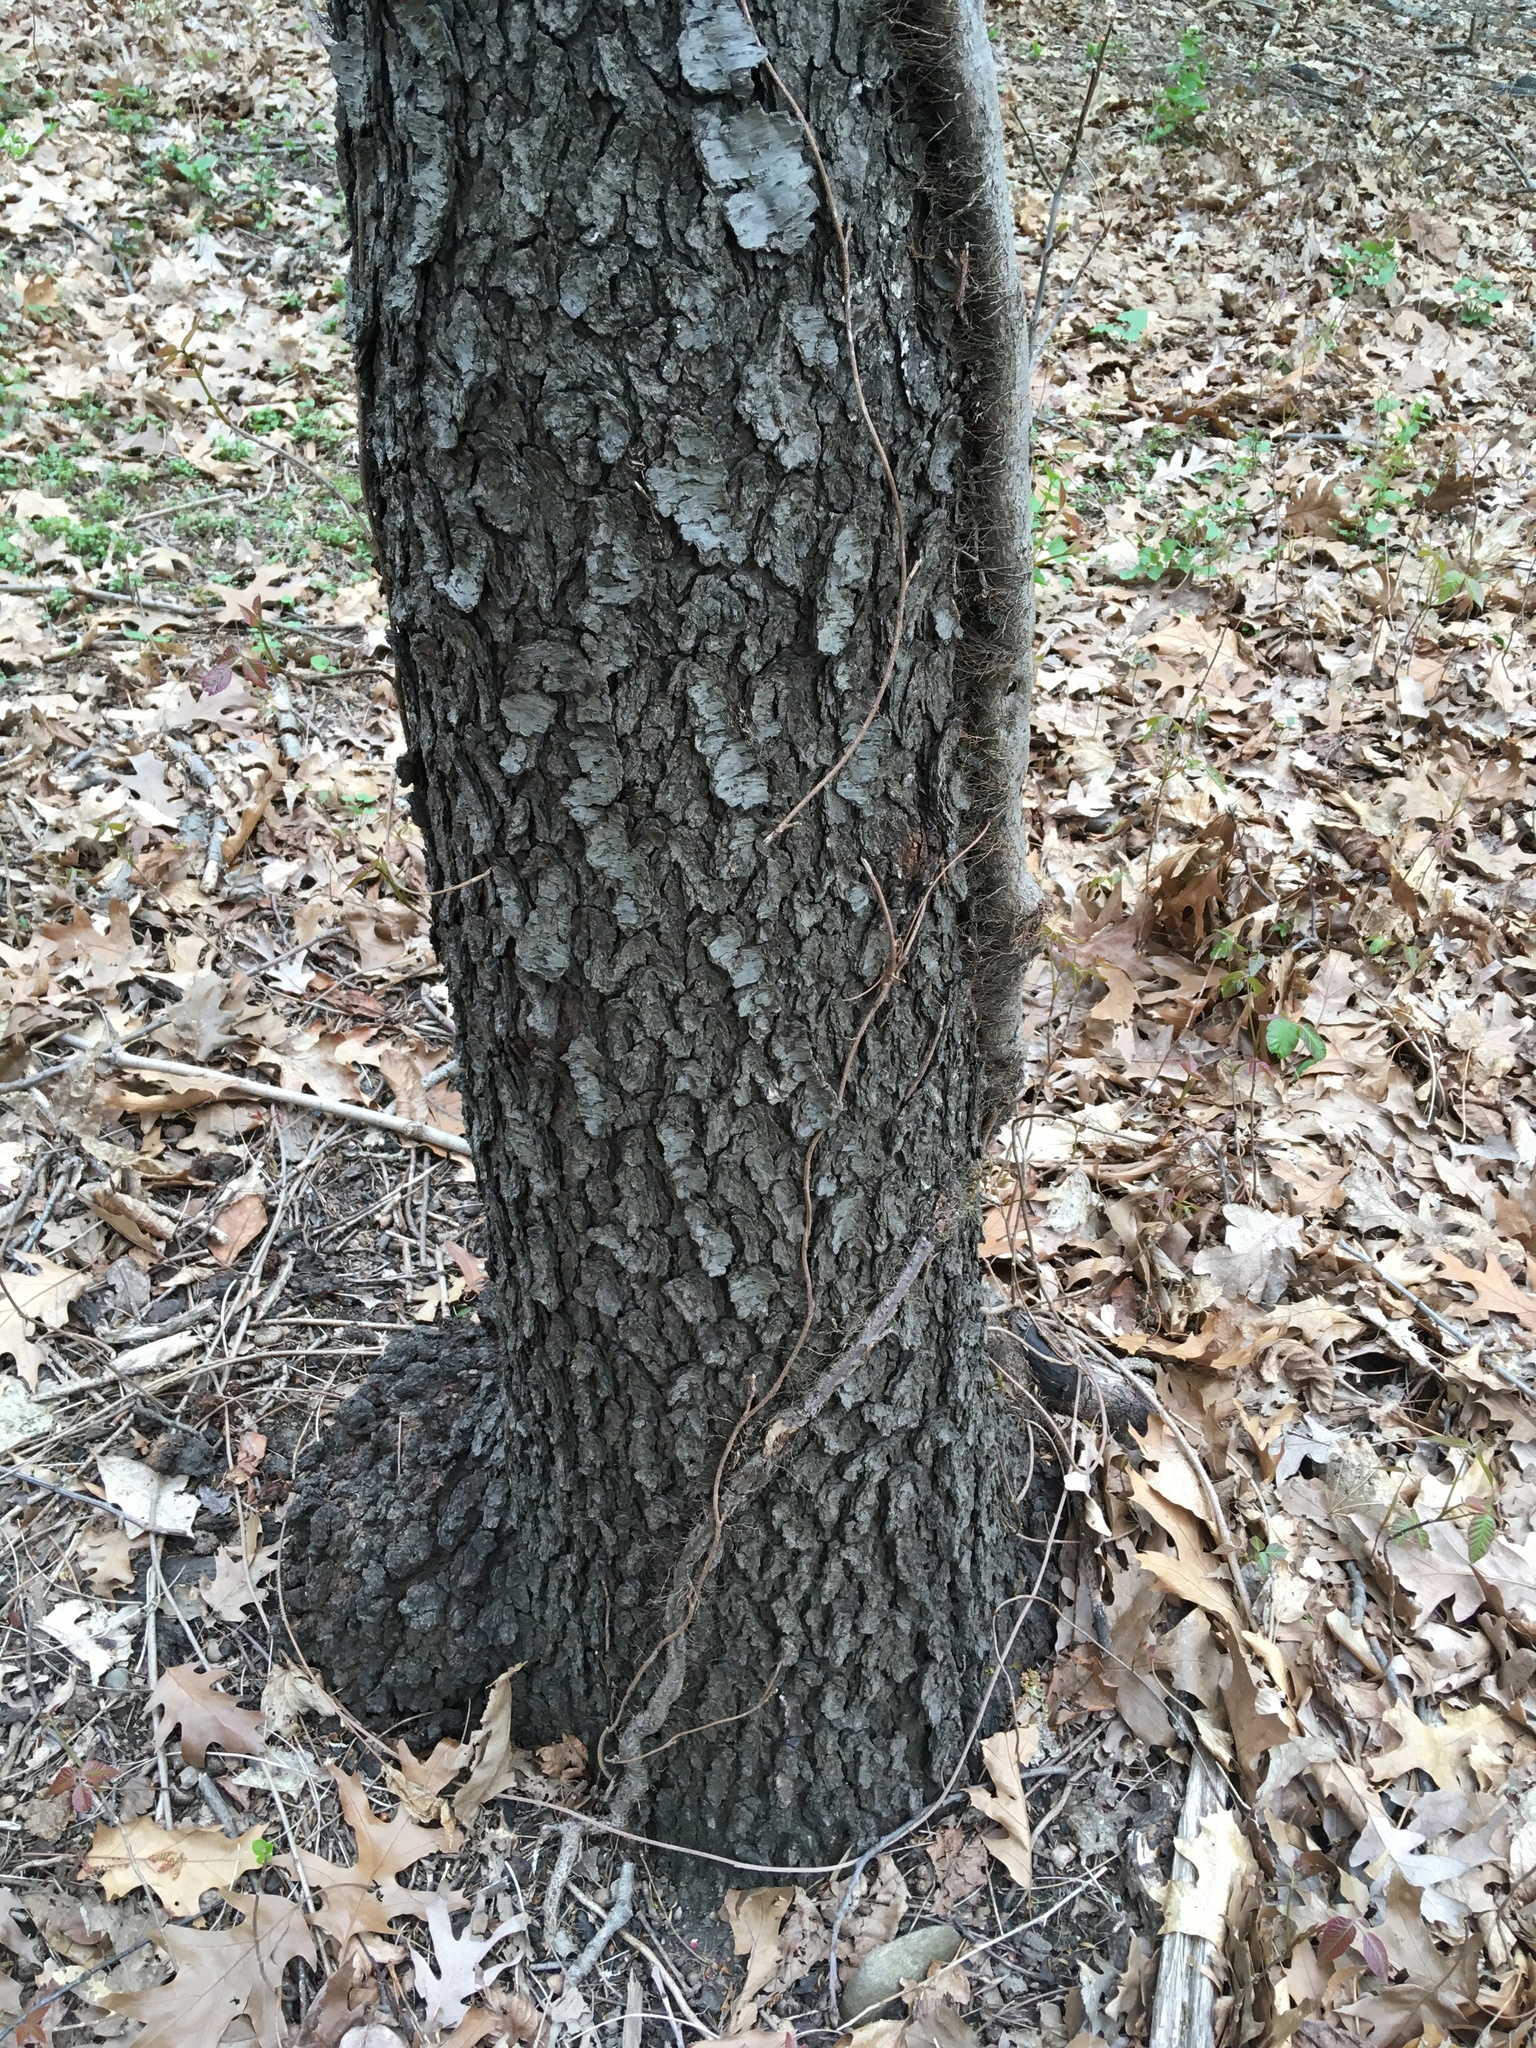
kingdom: Plantae
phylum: Tracheophyta
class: Magnoliopsida
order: Rosales
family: Rosaceae
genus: Prunus
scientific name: Prunus serotina
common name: Black cherry
